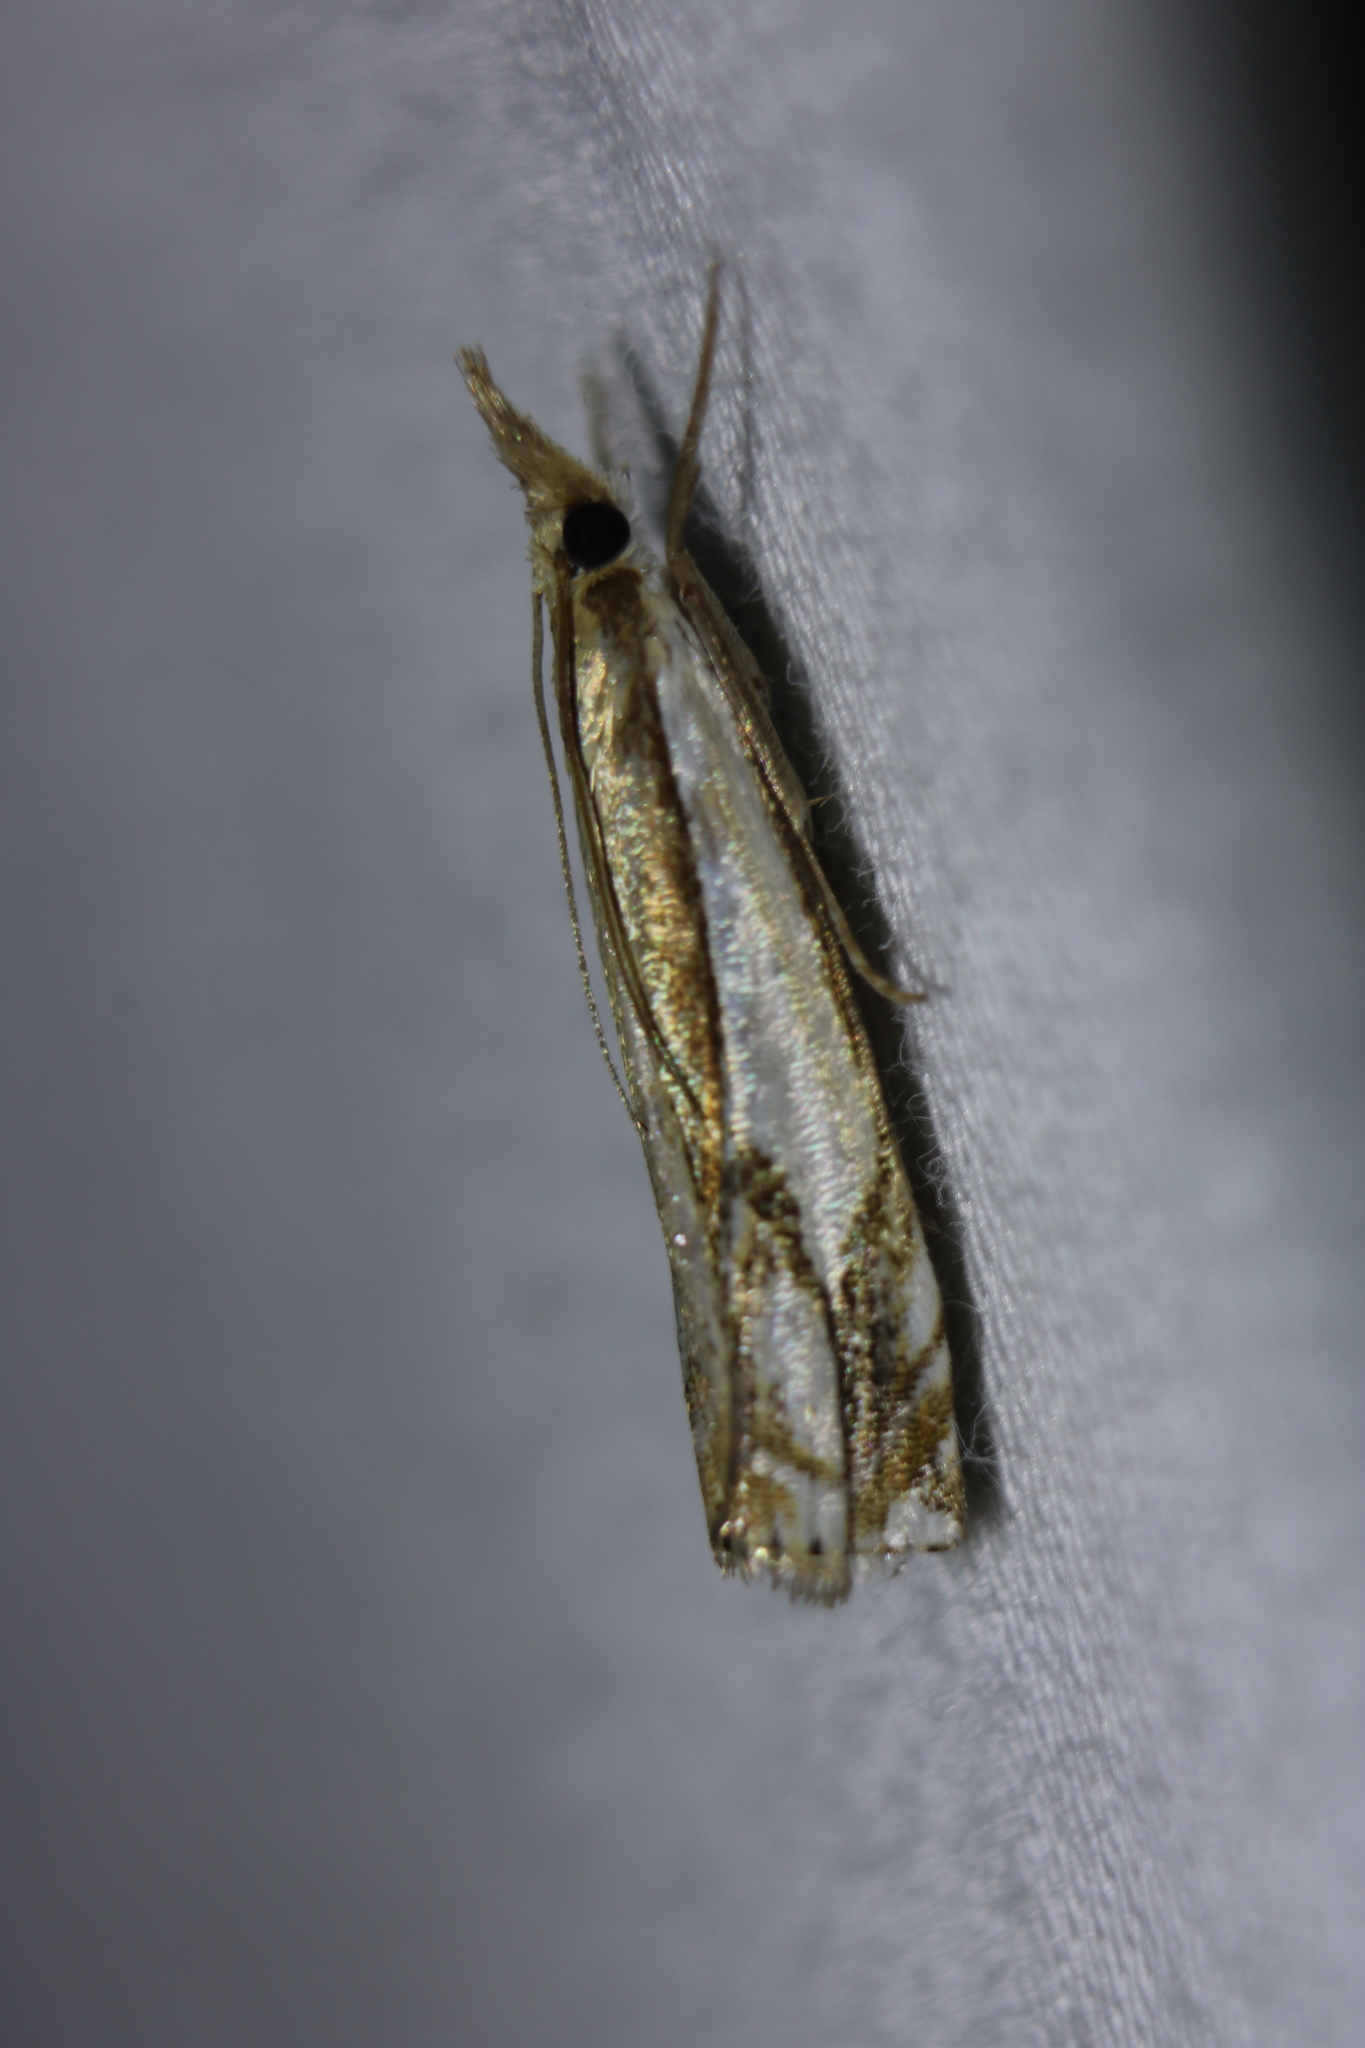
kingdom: Animalia
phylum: Arthropoda
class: Insecta
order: Lepidoptera
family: Crambidae
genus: Crambus
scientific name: Crambus agitatellus
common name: Double-banded grass-veneer
